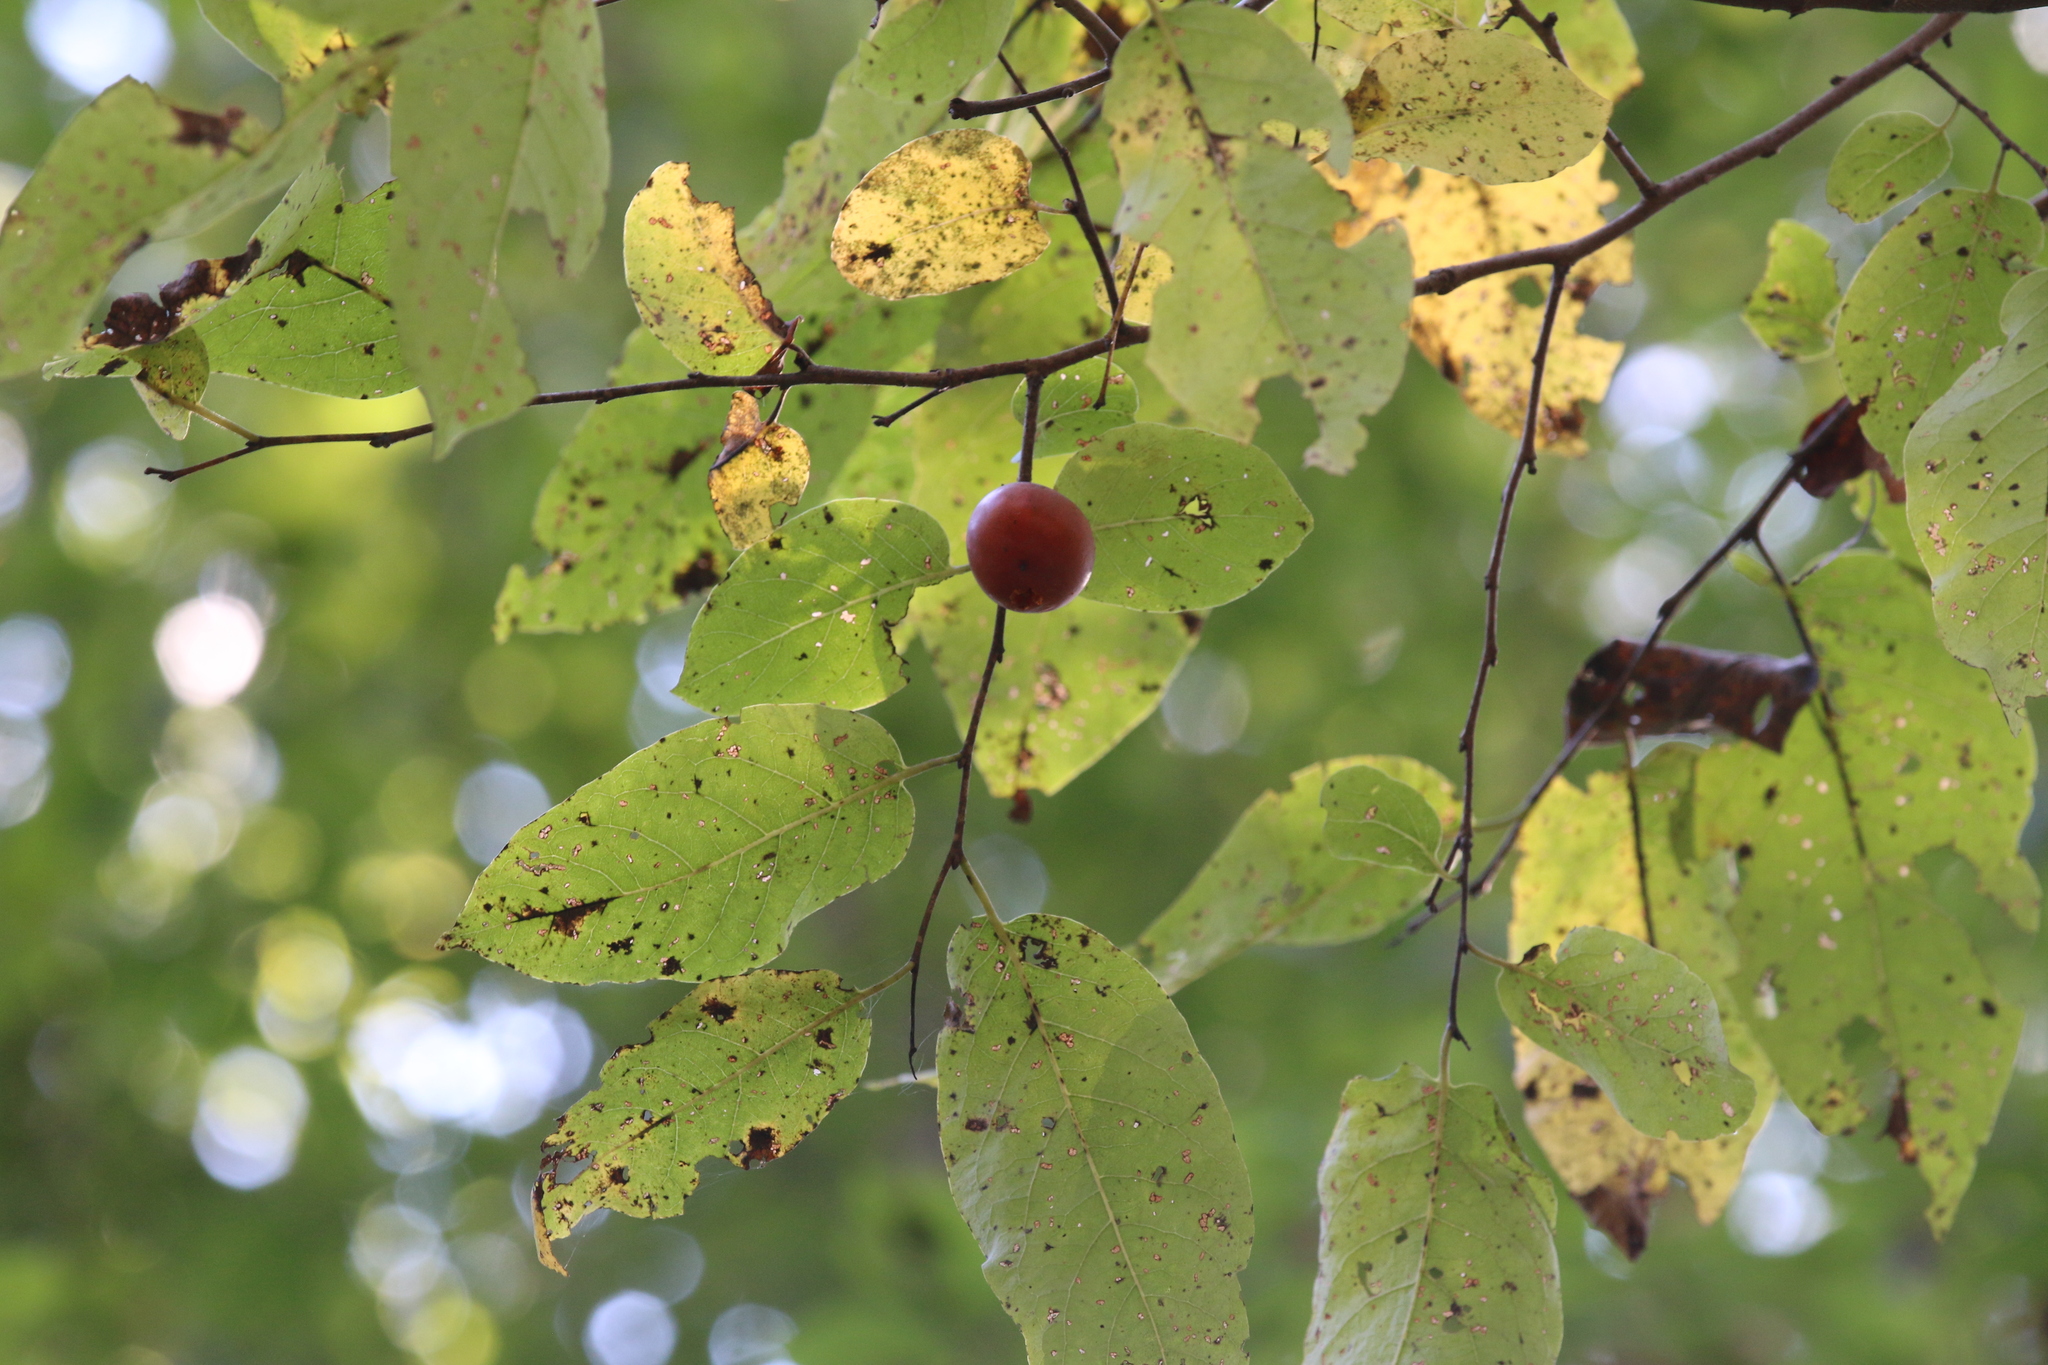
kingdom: Plantae
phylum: Tracheophyta
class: Magnoliopsida
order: Ericales
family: Ebenaceae
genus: Diospyros
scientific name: Diospyros virginiana
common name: Persimmon
